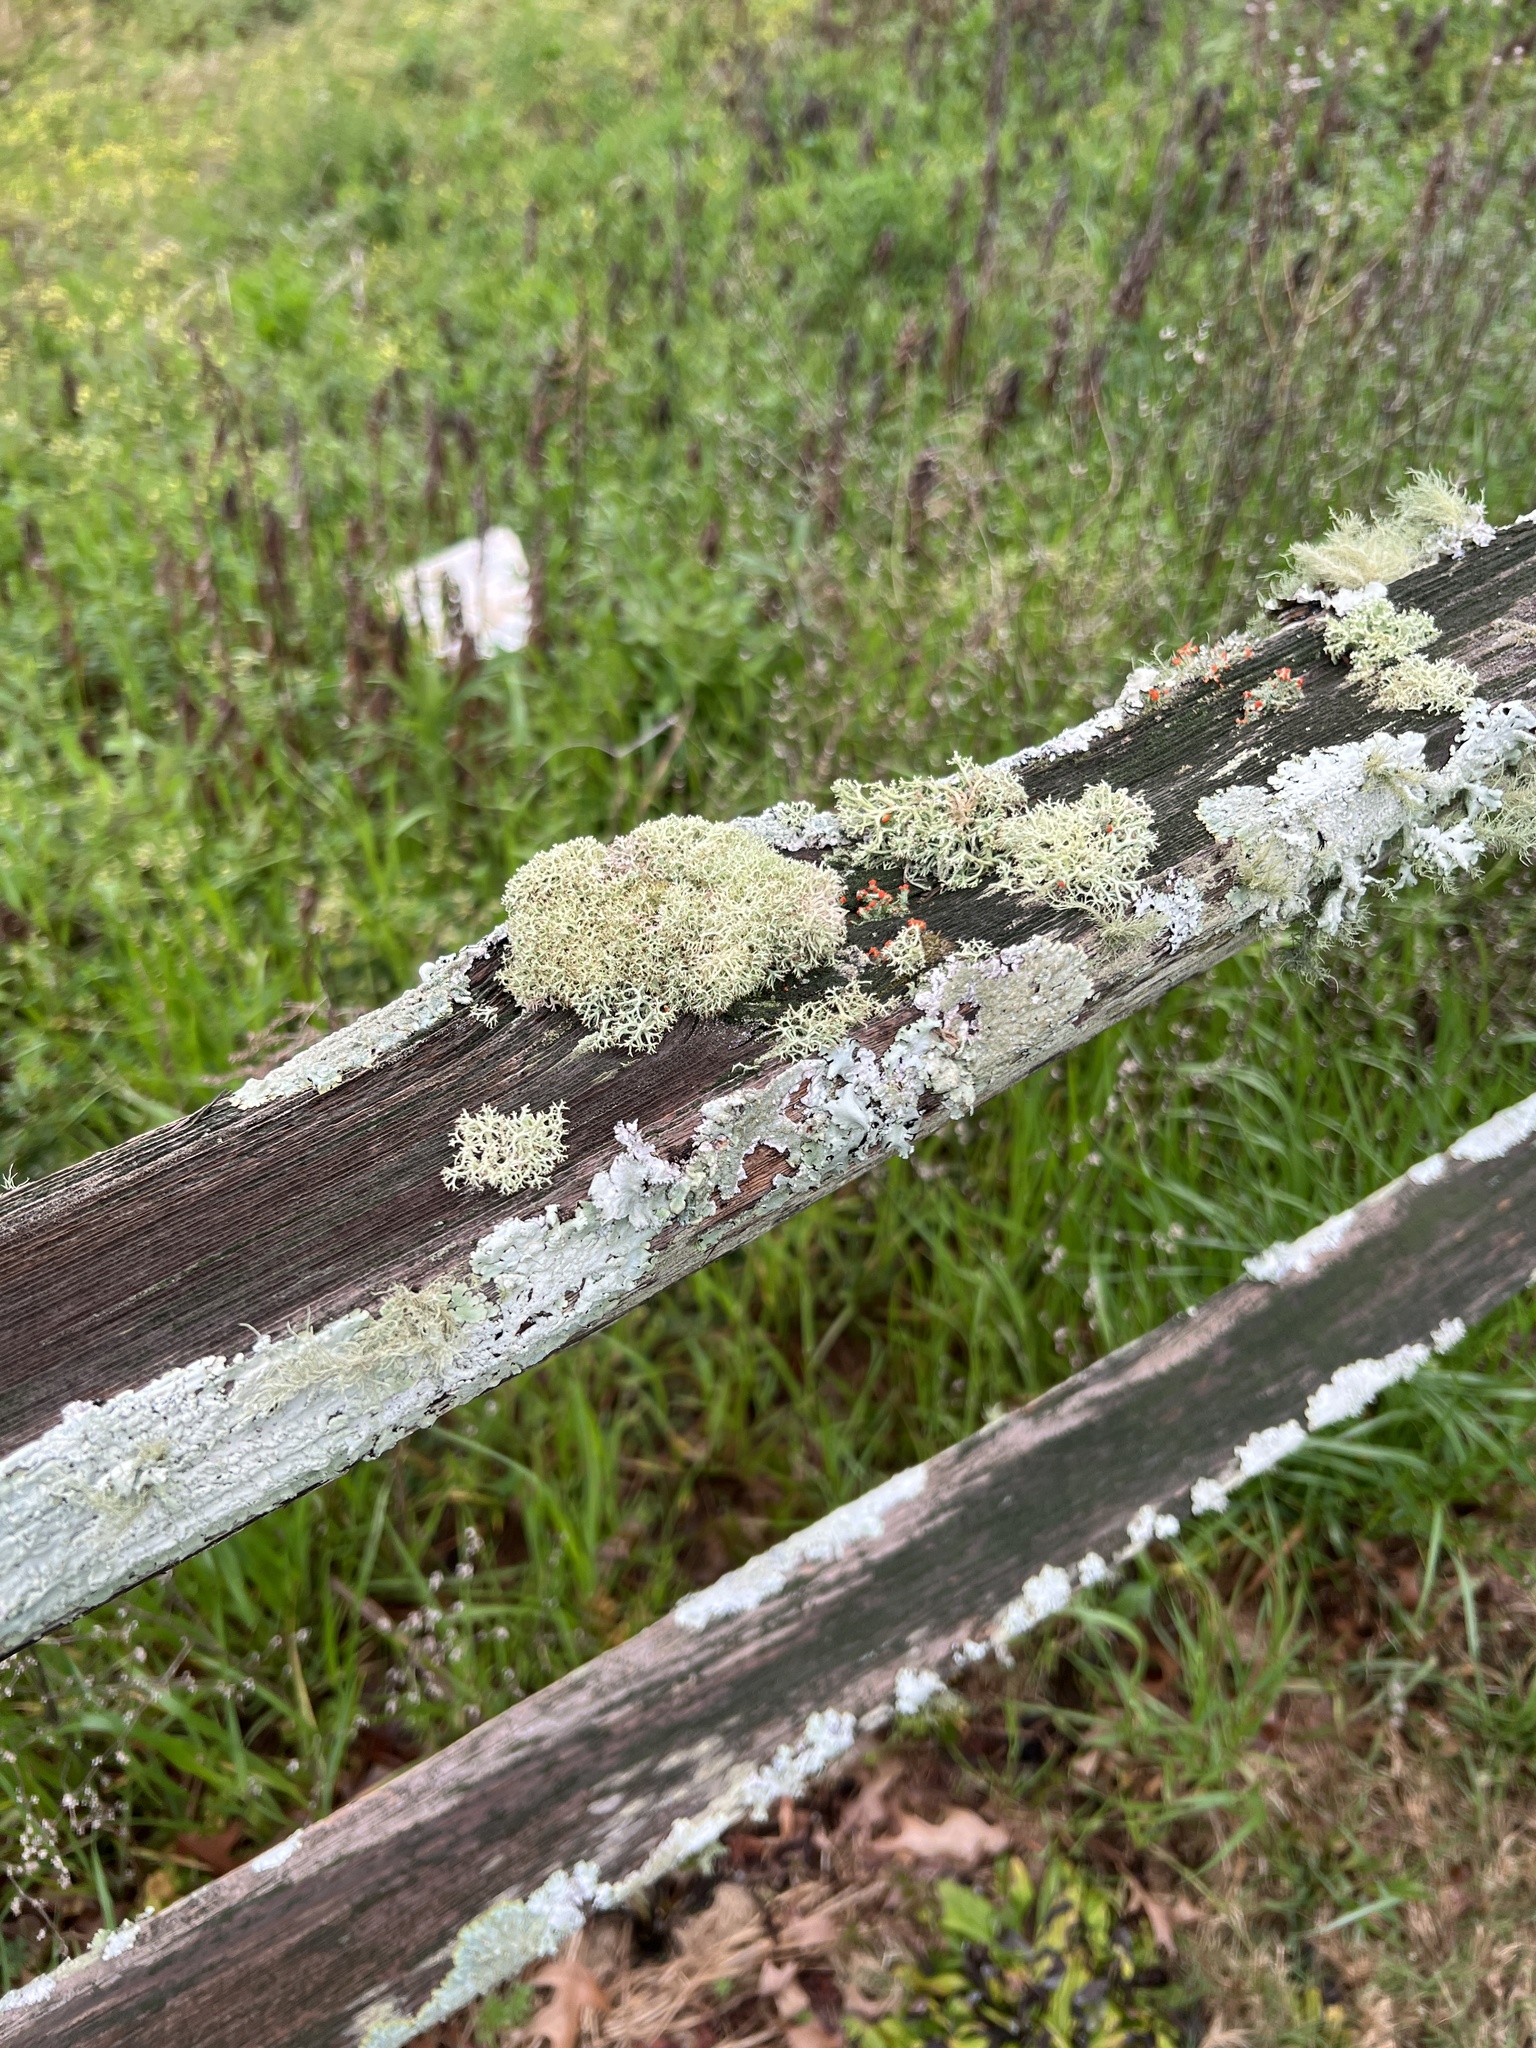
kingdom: Fungi
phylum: Ascomycota
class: Lecanoromycetes
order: Lecanorales
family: Cladoniaceae
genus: Cladonia
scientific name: Cladonia
